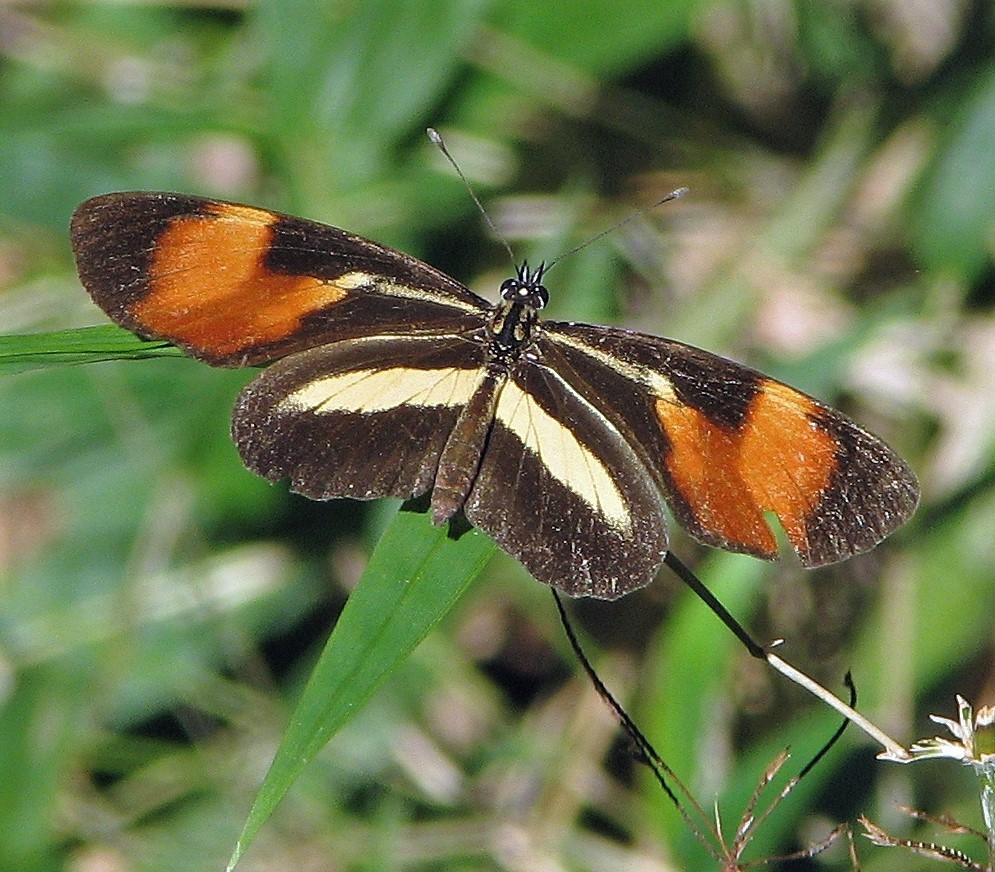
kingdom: Animalia
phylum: Arthropoda
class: Insecta
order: Lepidoptera
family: Nymphalidae
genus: Eresia
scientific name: Eresia lansdorfi
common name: Lansdorf's crescent
